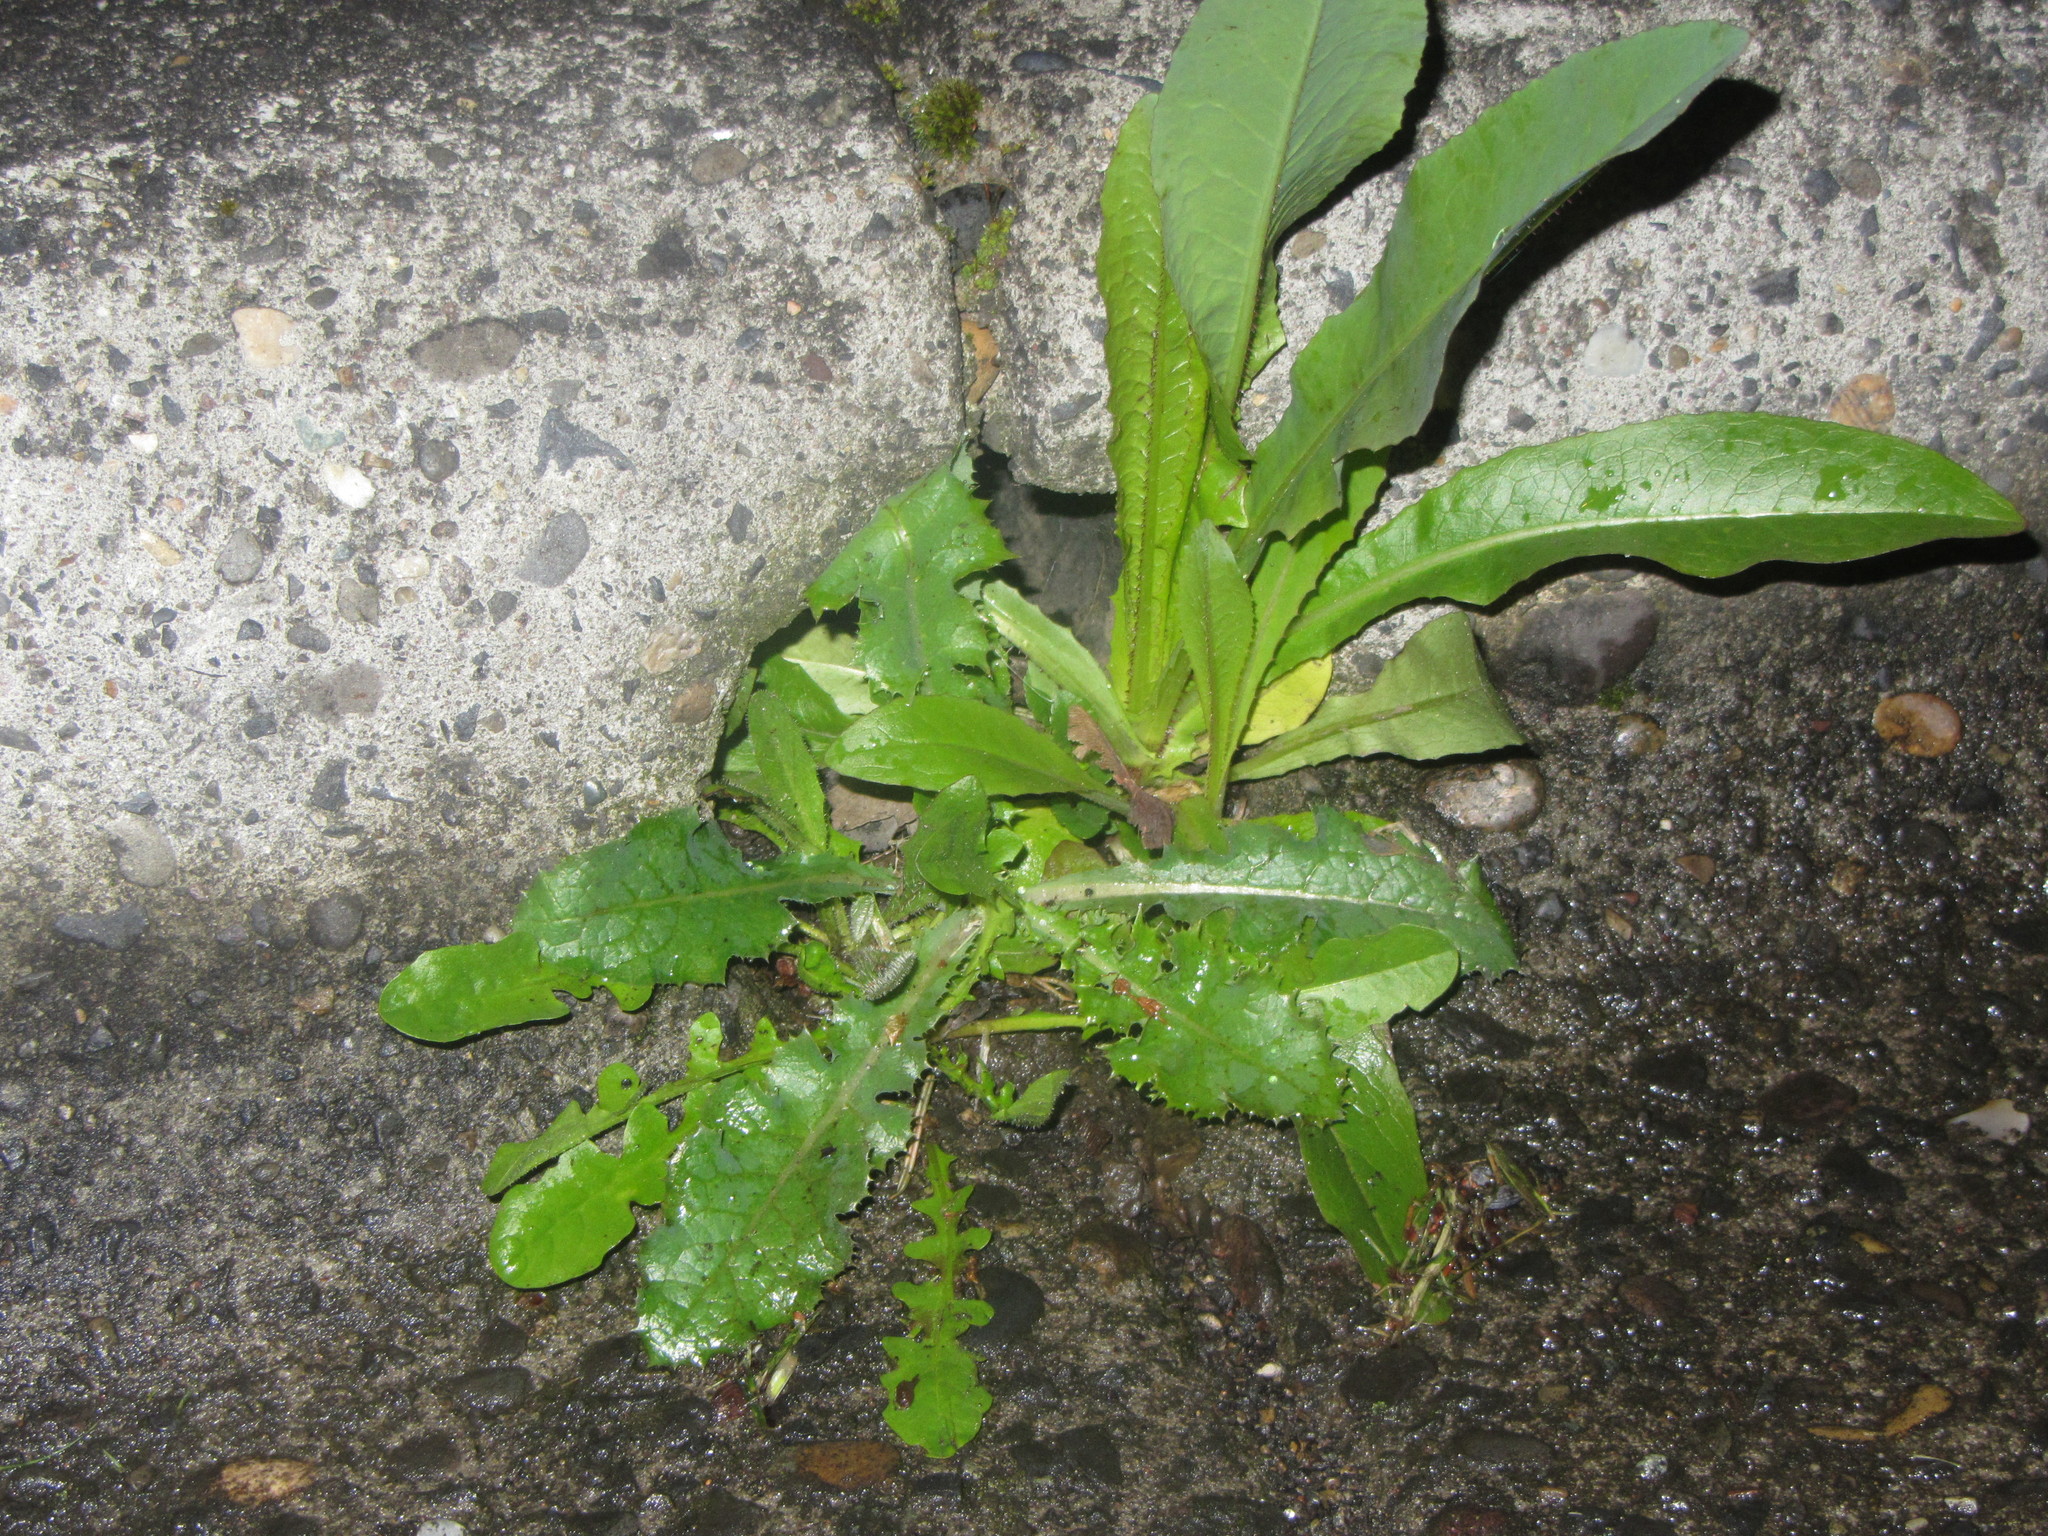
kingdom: Plantae
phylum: Tracheophyta
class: Magnoliopsida
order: Asterales
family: Asteraceae
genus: Taraxacum
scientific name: Taraxacum officinale
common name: Common dandelion
